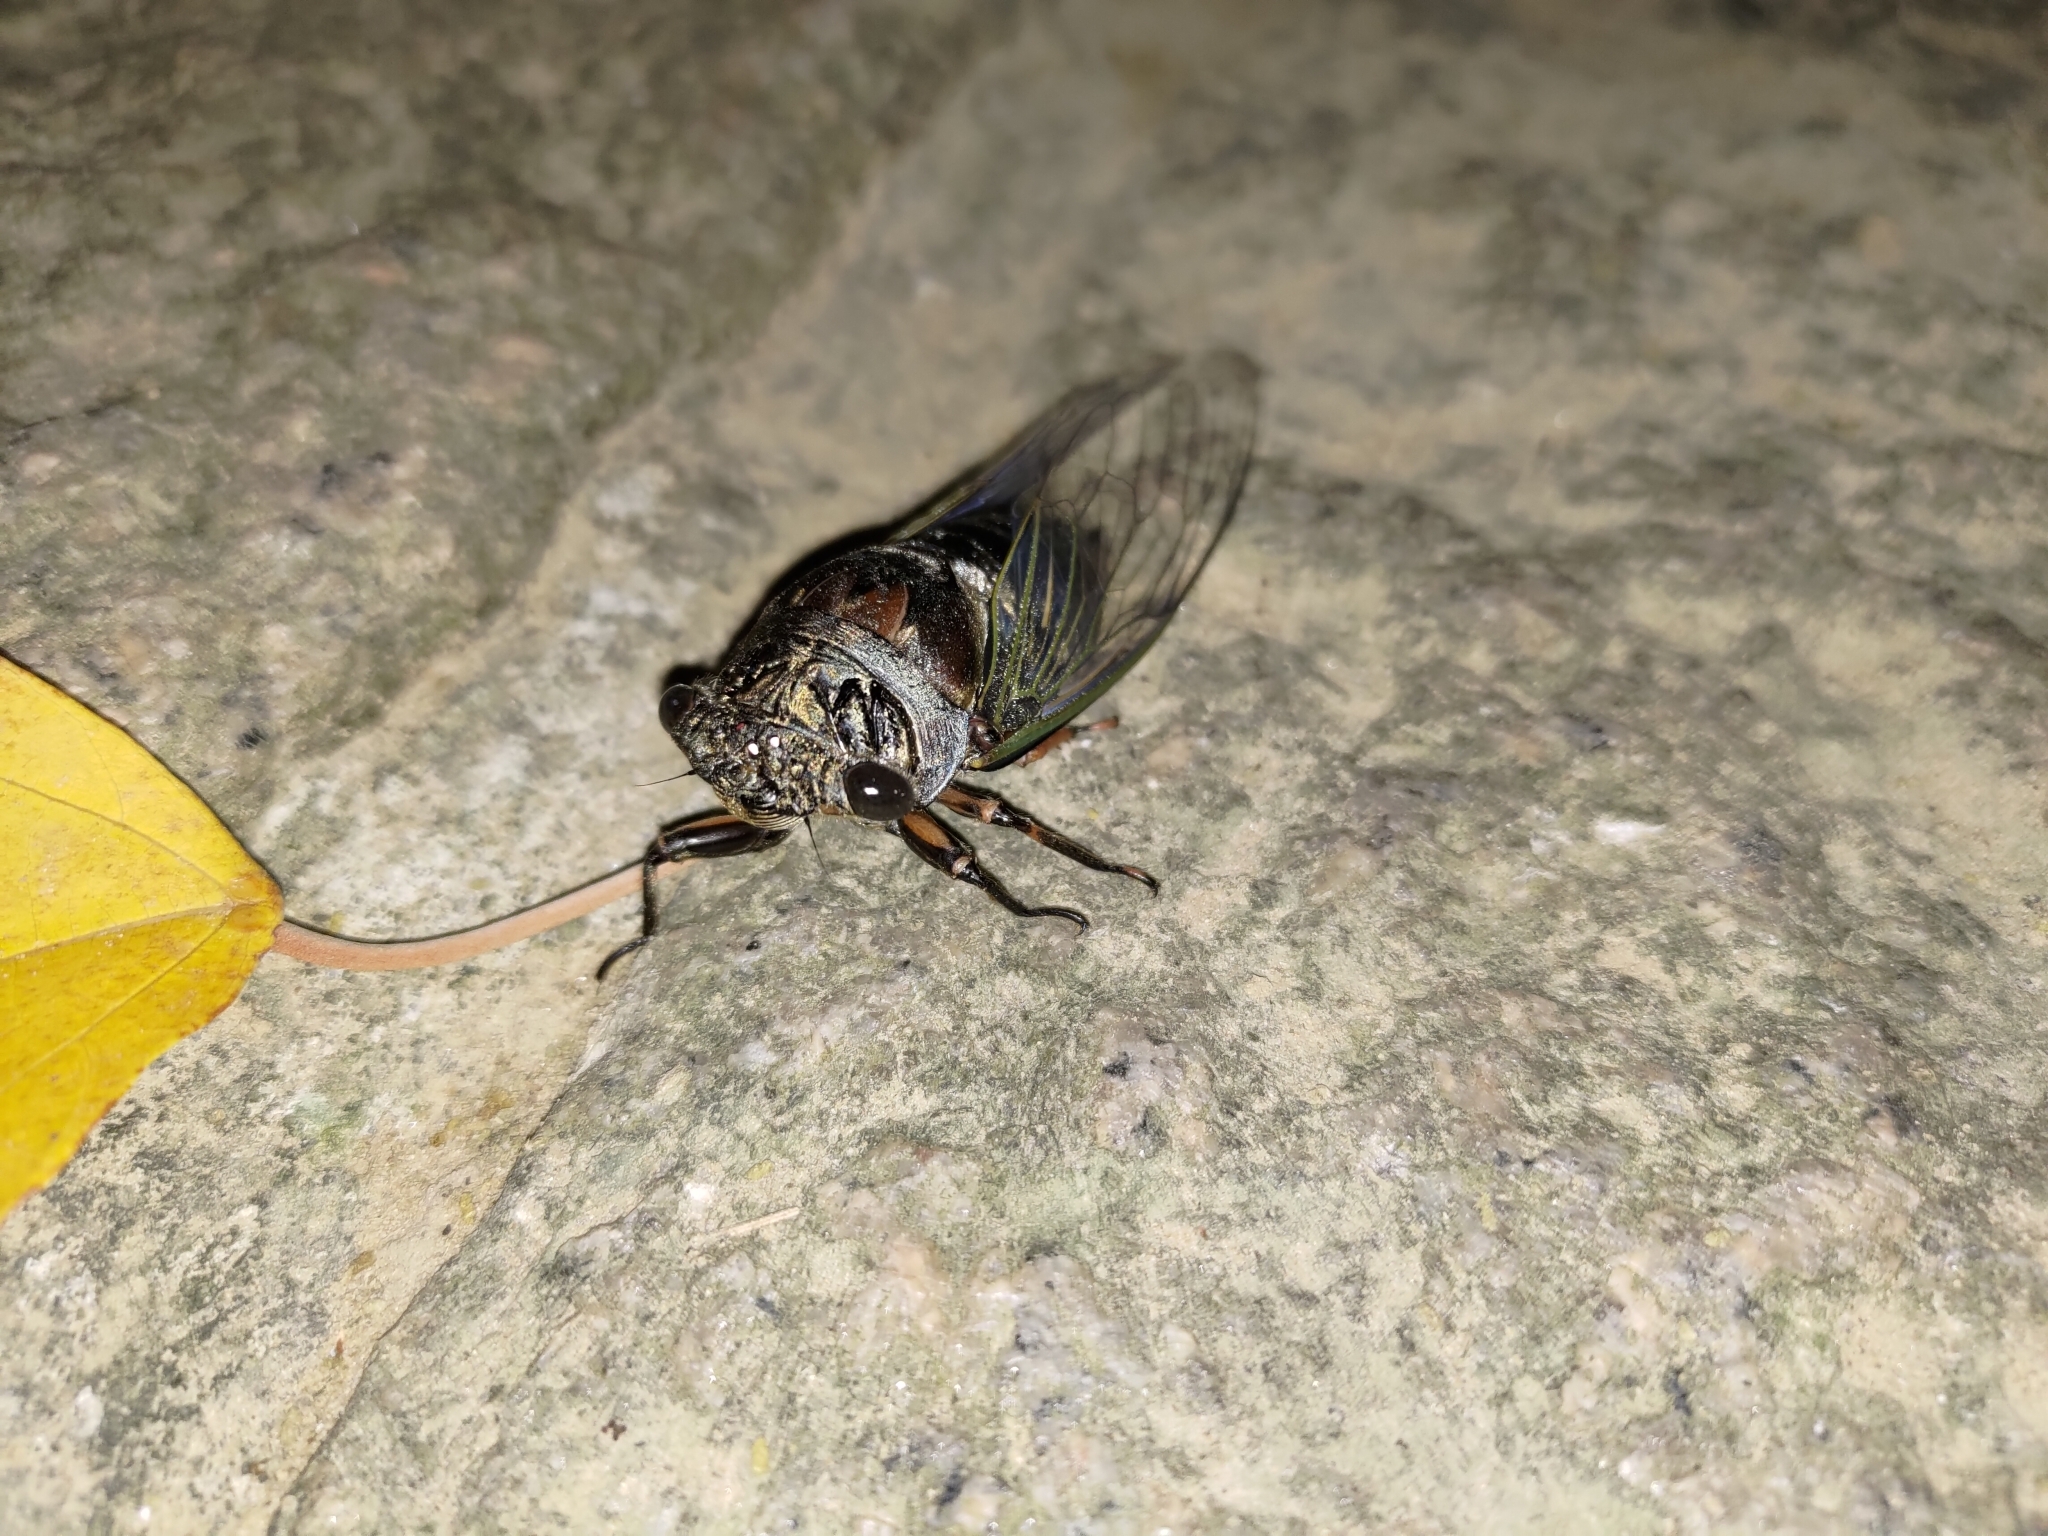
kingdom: Animalia
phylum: Arthropoda
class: Insecta
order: Hemiptera
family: Cicadidae
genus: Cryptotympana
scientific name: Cryptotympana takasagona
